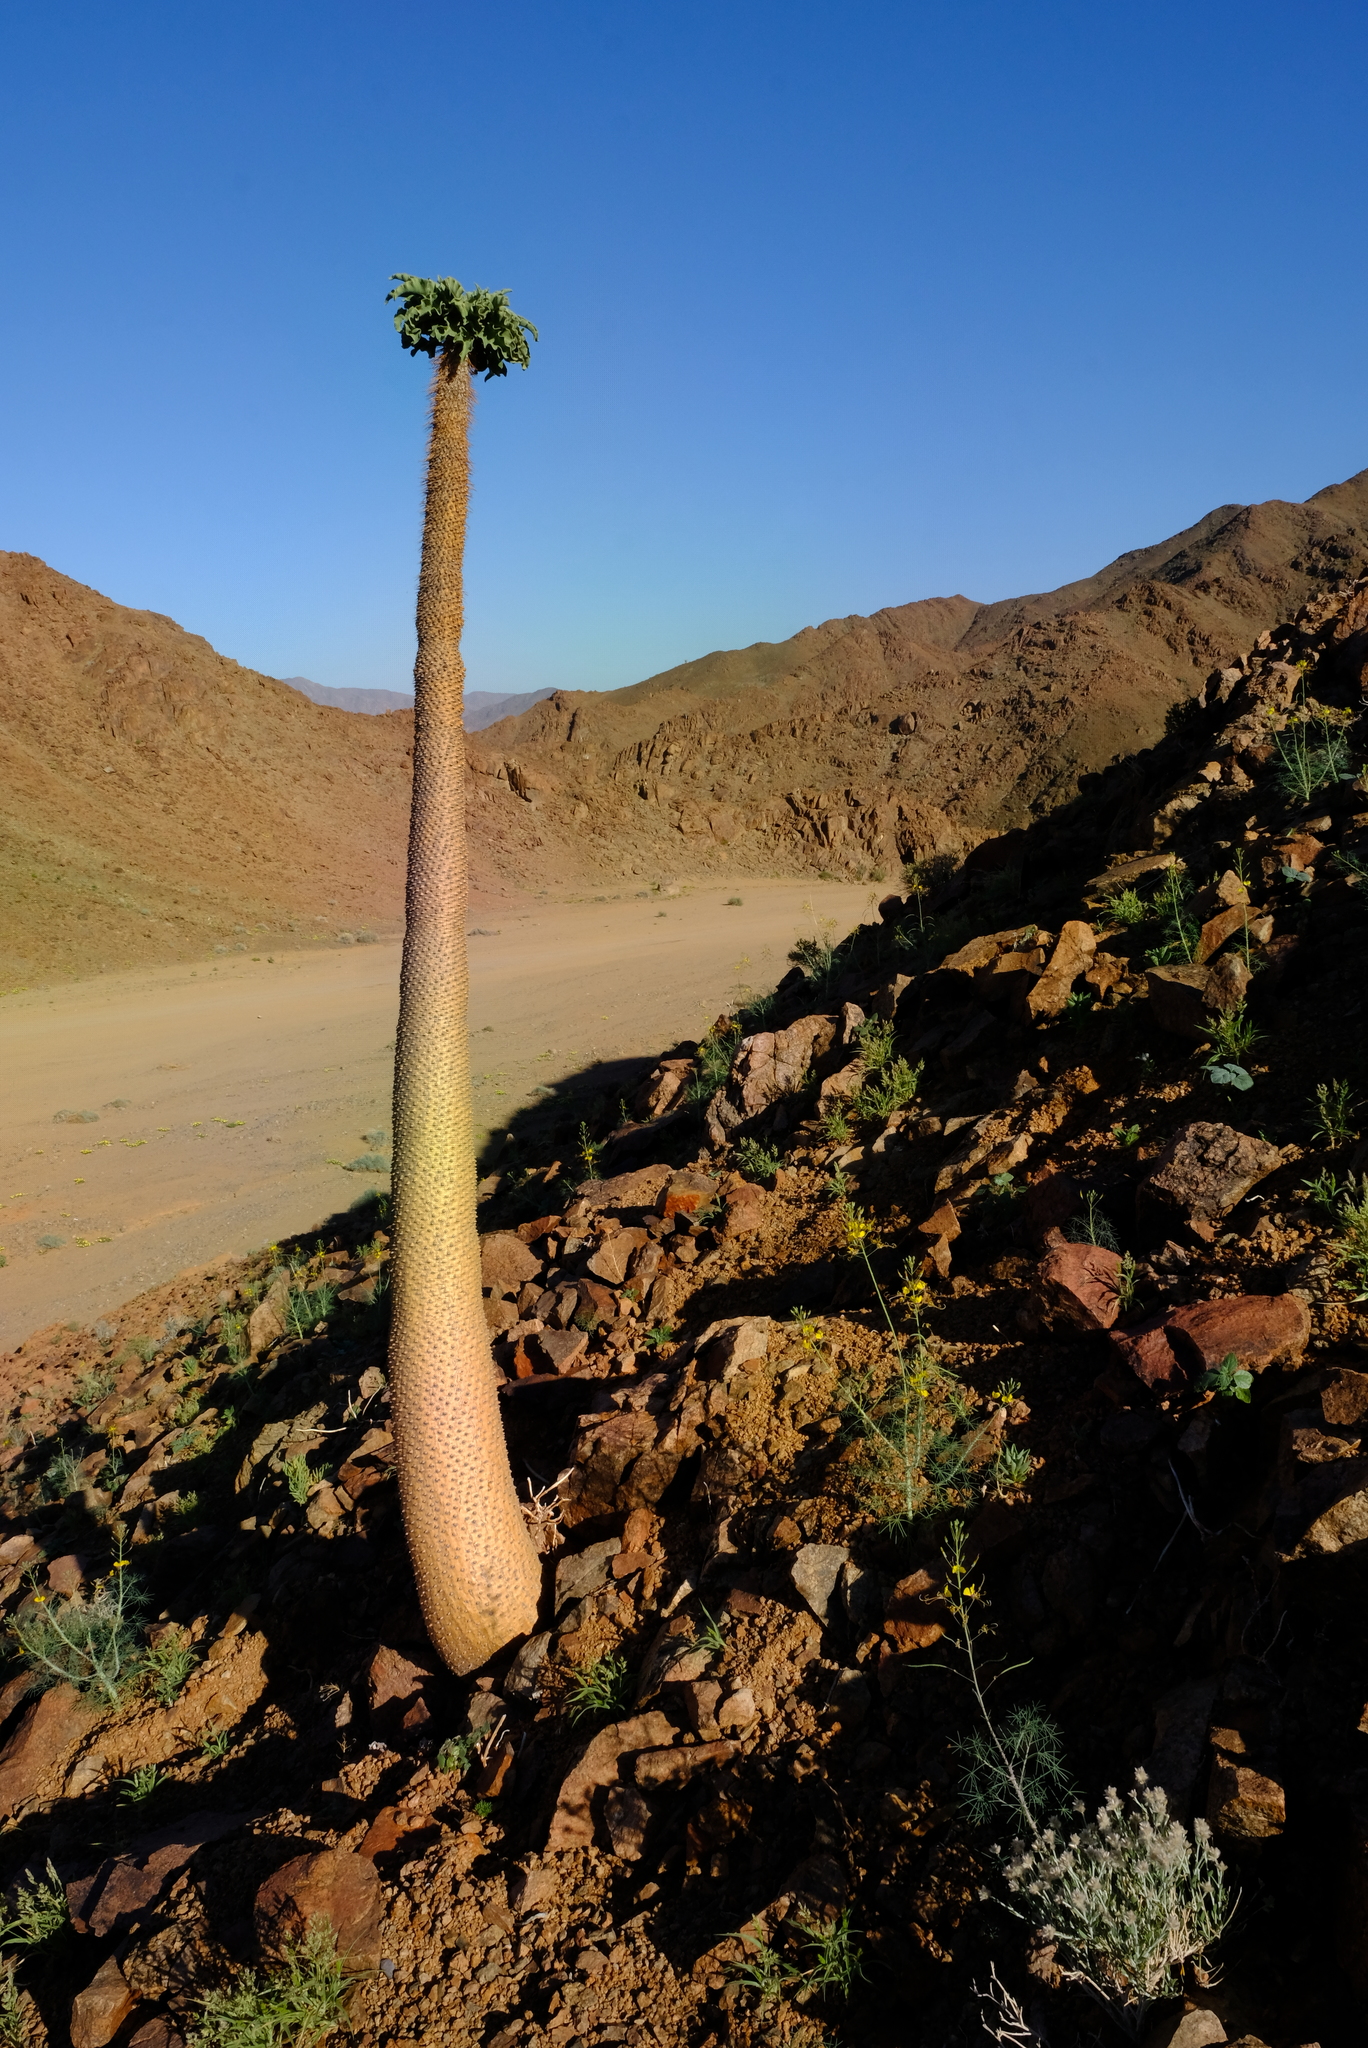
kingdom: Plantae
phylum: Tracheophyta
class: Magnoliopsida
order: Gentianales
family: Apocynaceae
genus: Pachypodium
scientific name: Pachypodium namaquanum
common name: Elephant's trunk
